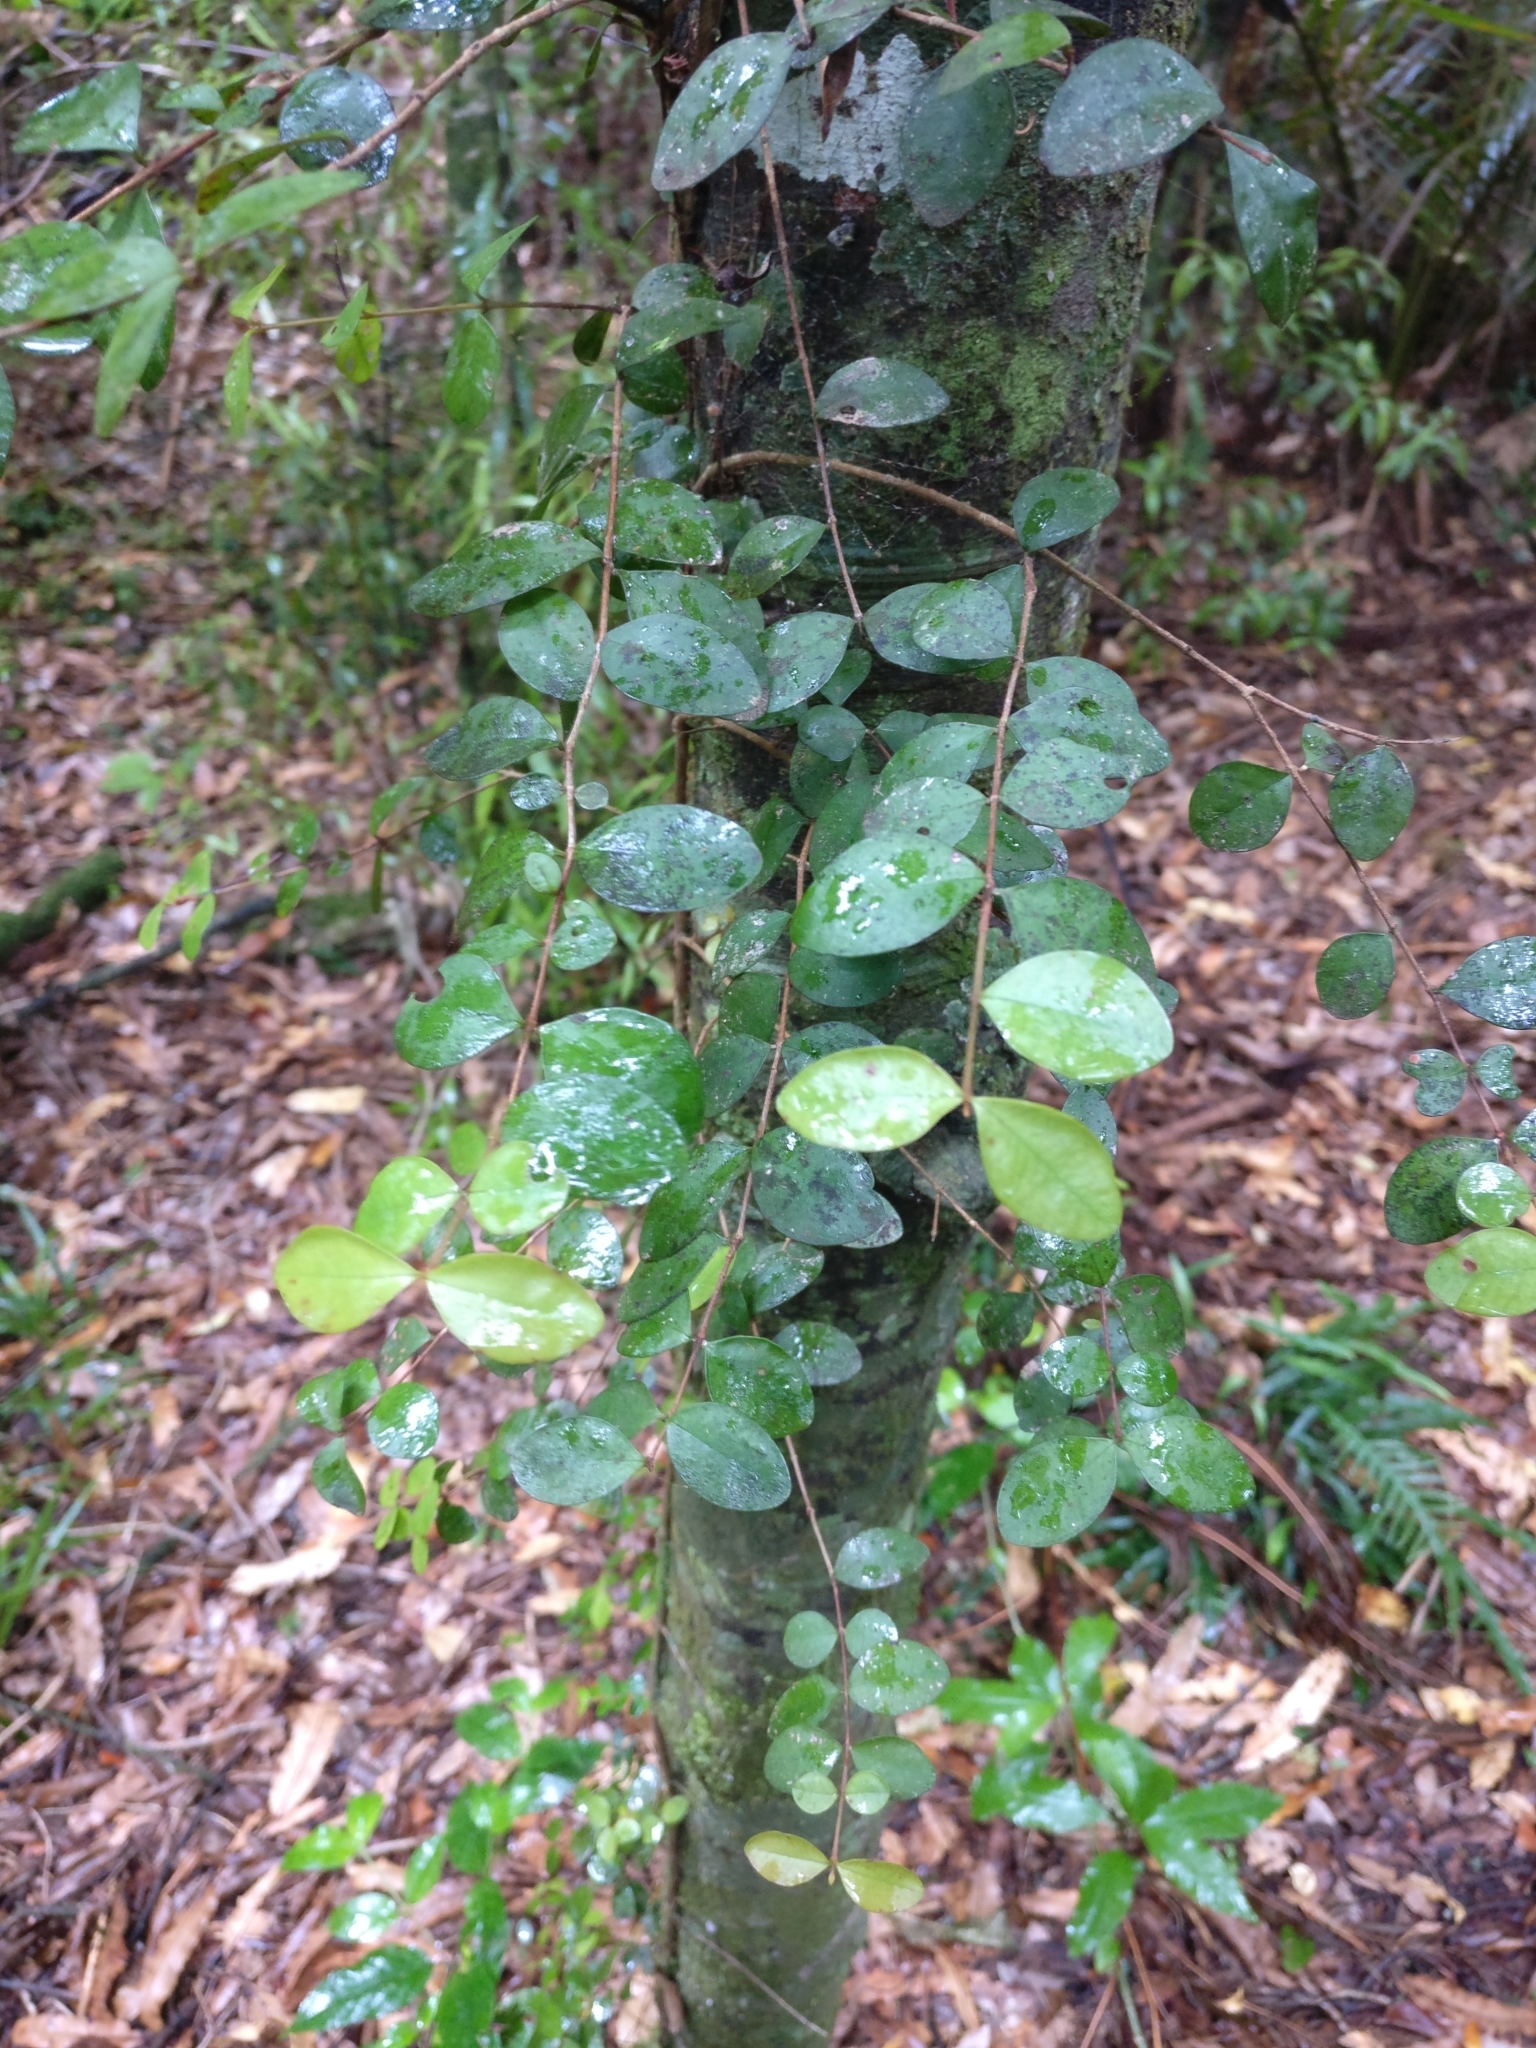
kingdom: Plantae
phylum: Tracheophyta
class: Magnoliopsida
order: Myrtales
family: Myrtaceae
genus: Metrosideros
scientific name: Metrosideros fulgens
